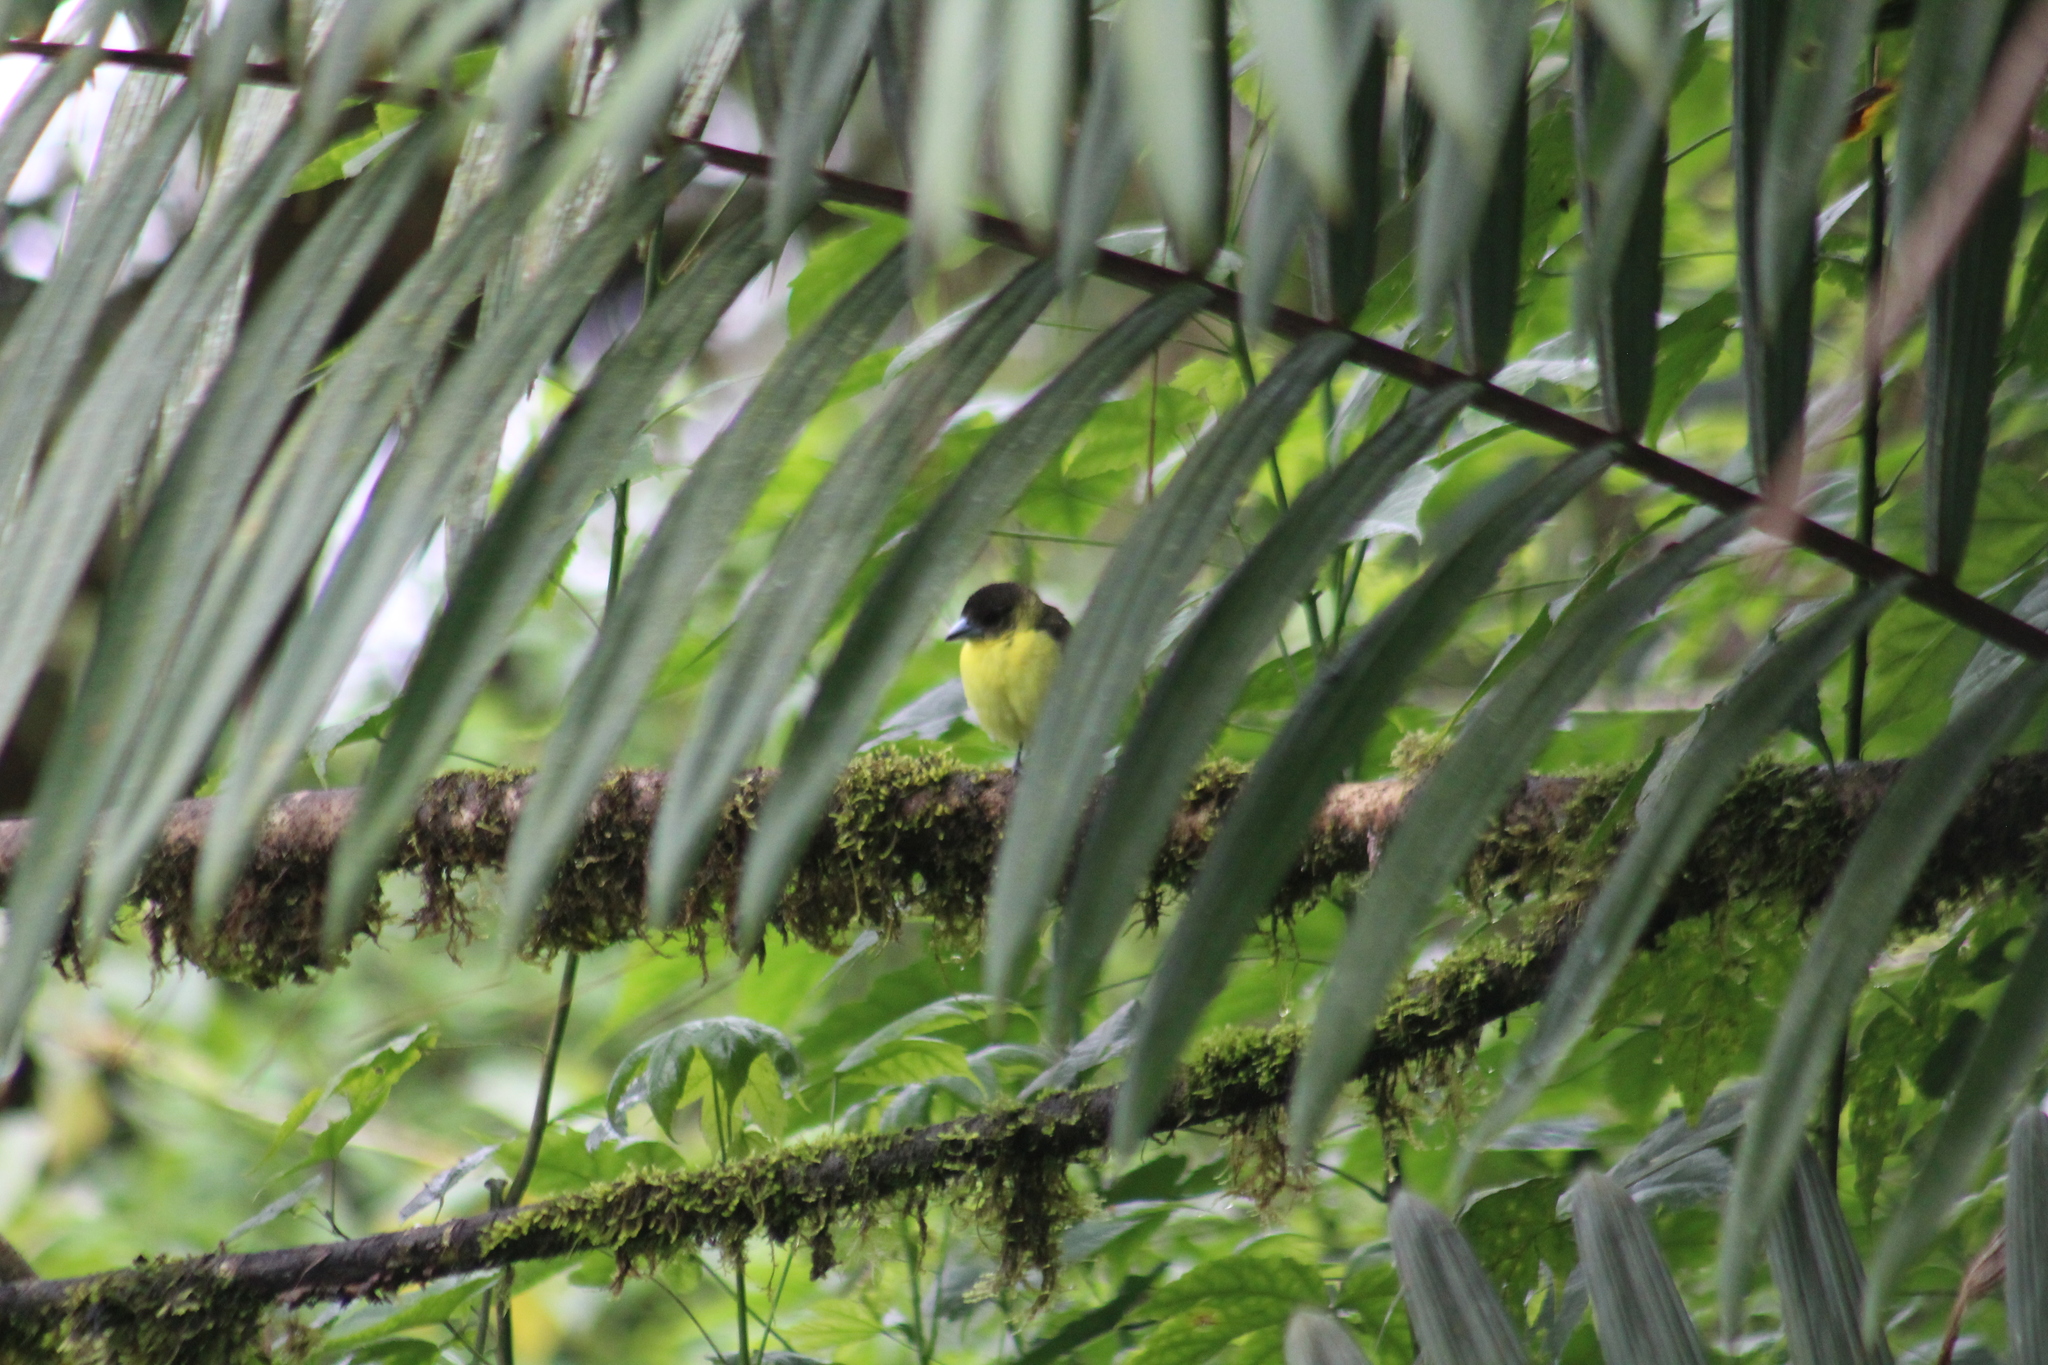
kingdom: Animalia
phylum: Chordata
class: Aves
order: Passeriformes
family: Thraupidae
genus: Ramphocelus
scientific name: Ramphocelus icteronotus
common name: Lemon-rumped tanager
